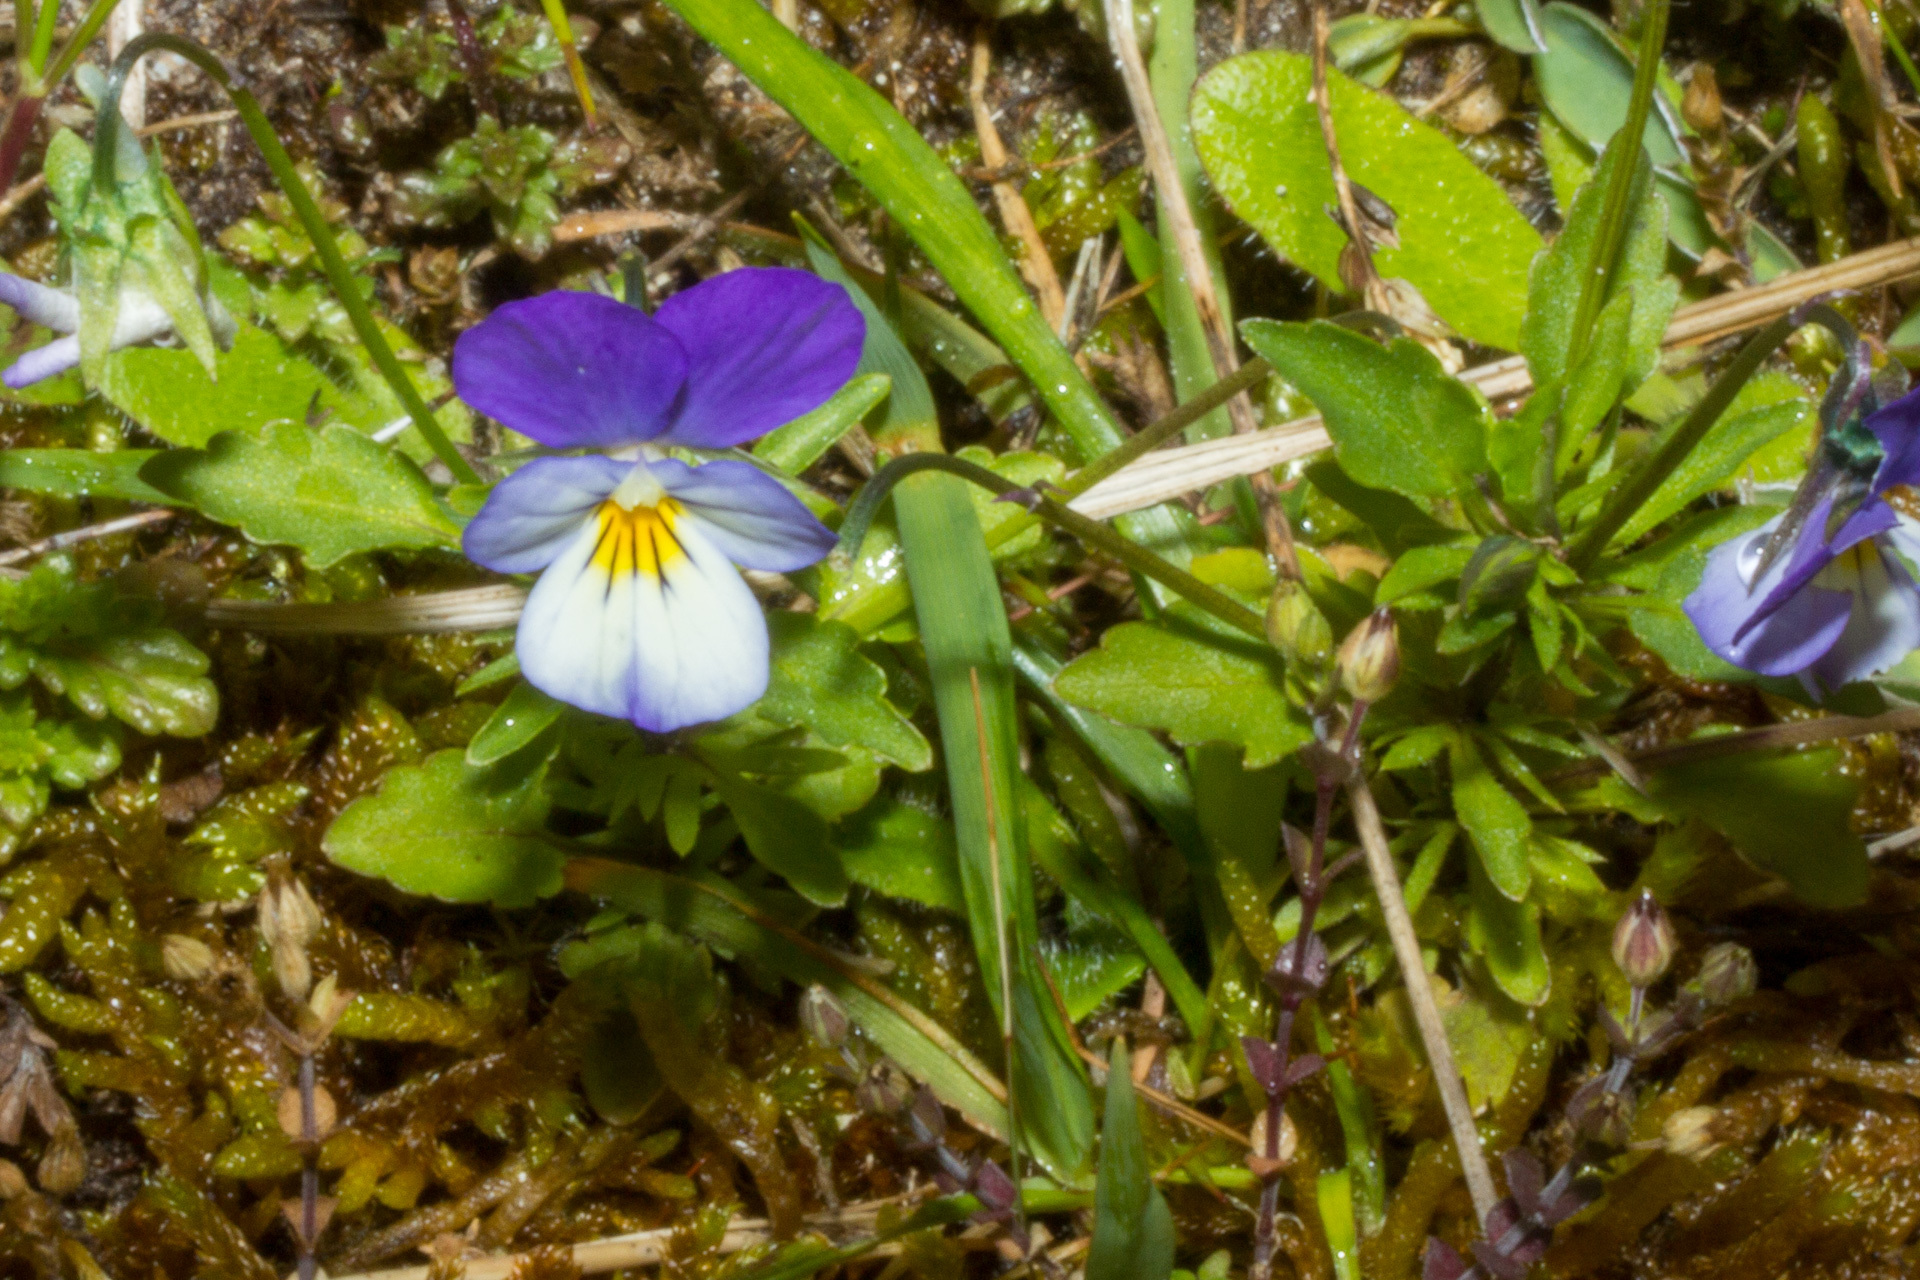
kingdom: Plantae
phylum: Tracheophyta
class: Magnoliopsida
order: Malpighiales
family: Violaceae
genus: Viola
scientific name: Viola tricolor
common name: Pansy
